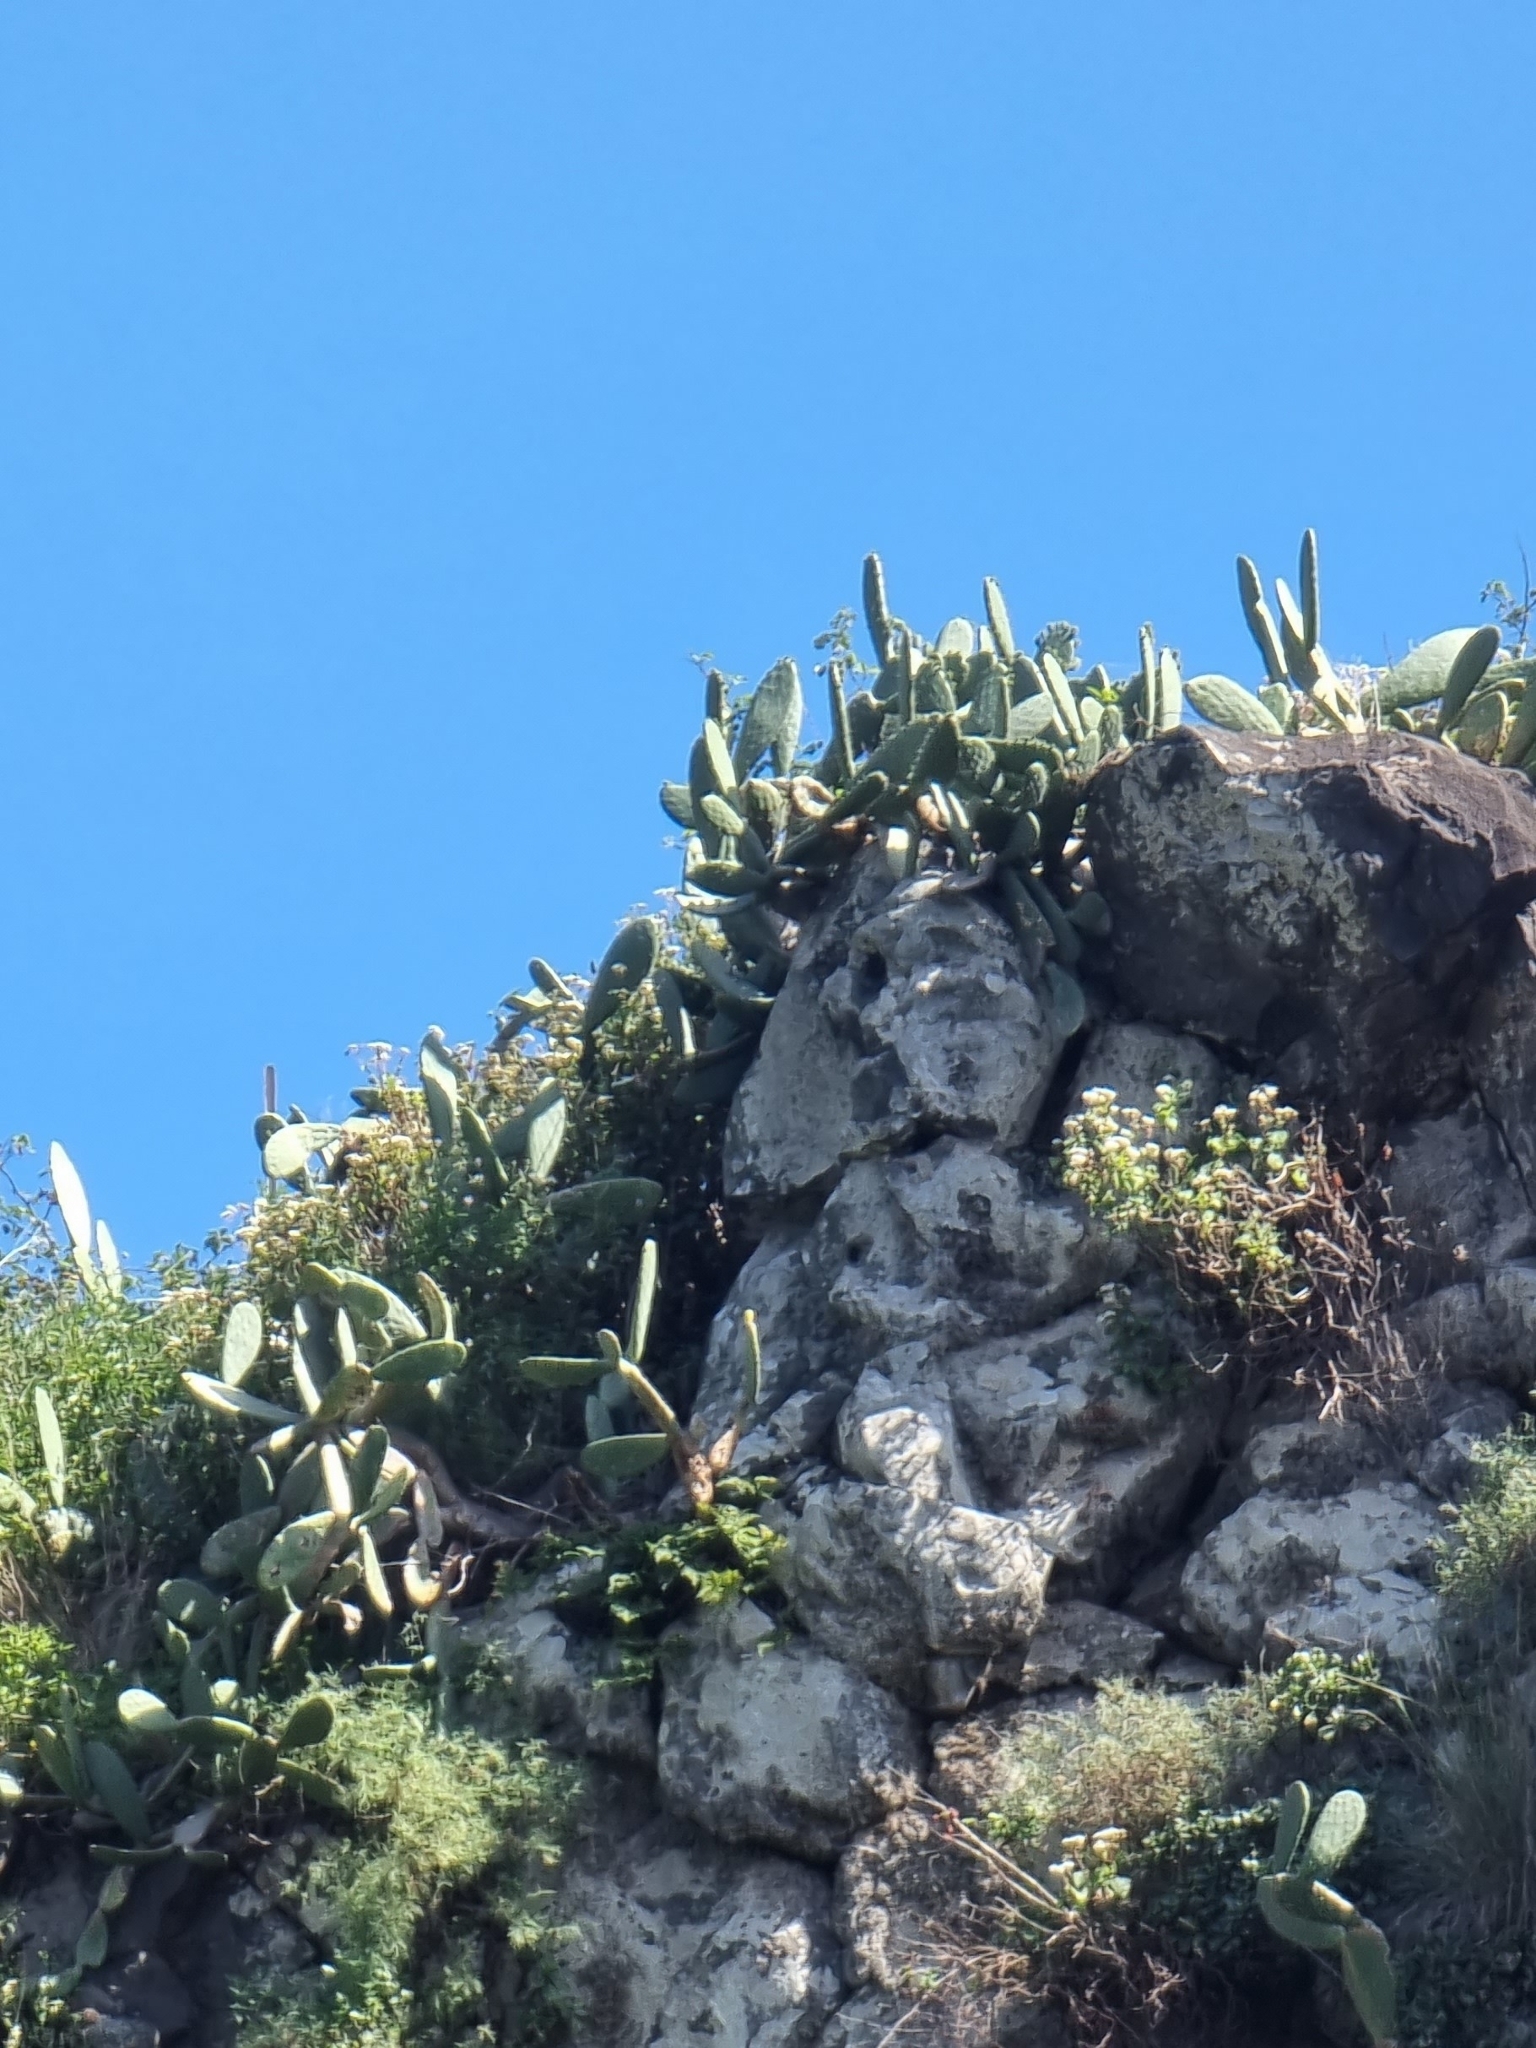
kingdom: Plantae
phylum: Tracheophyta
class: Magnoliopsida
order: Caryophyllales
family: Cactaceae
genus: Opuntia
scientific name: Opuntia ficus-indica
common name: Barbary fig
